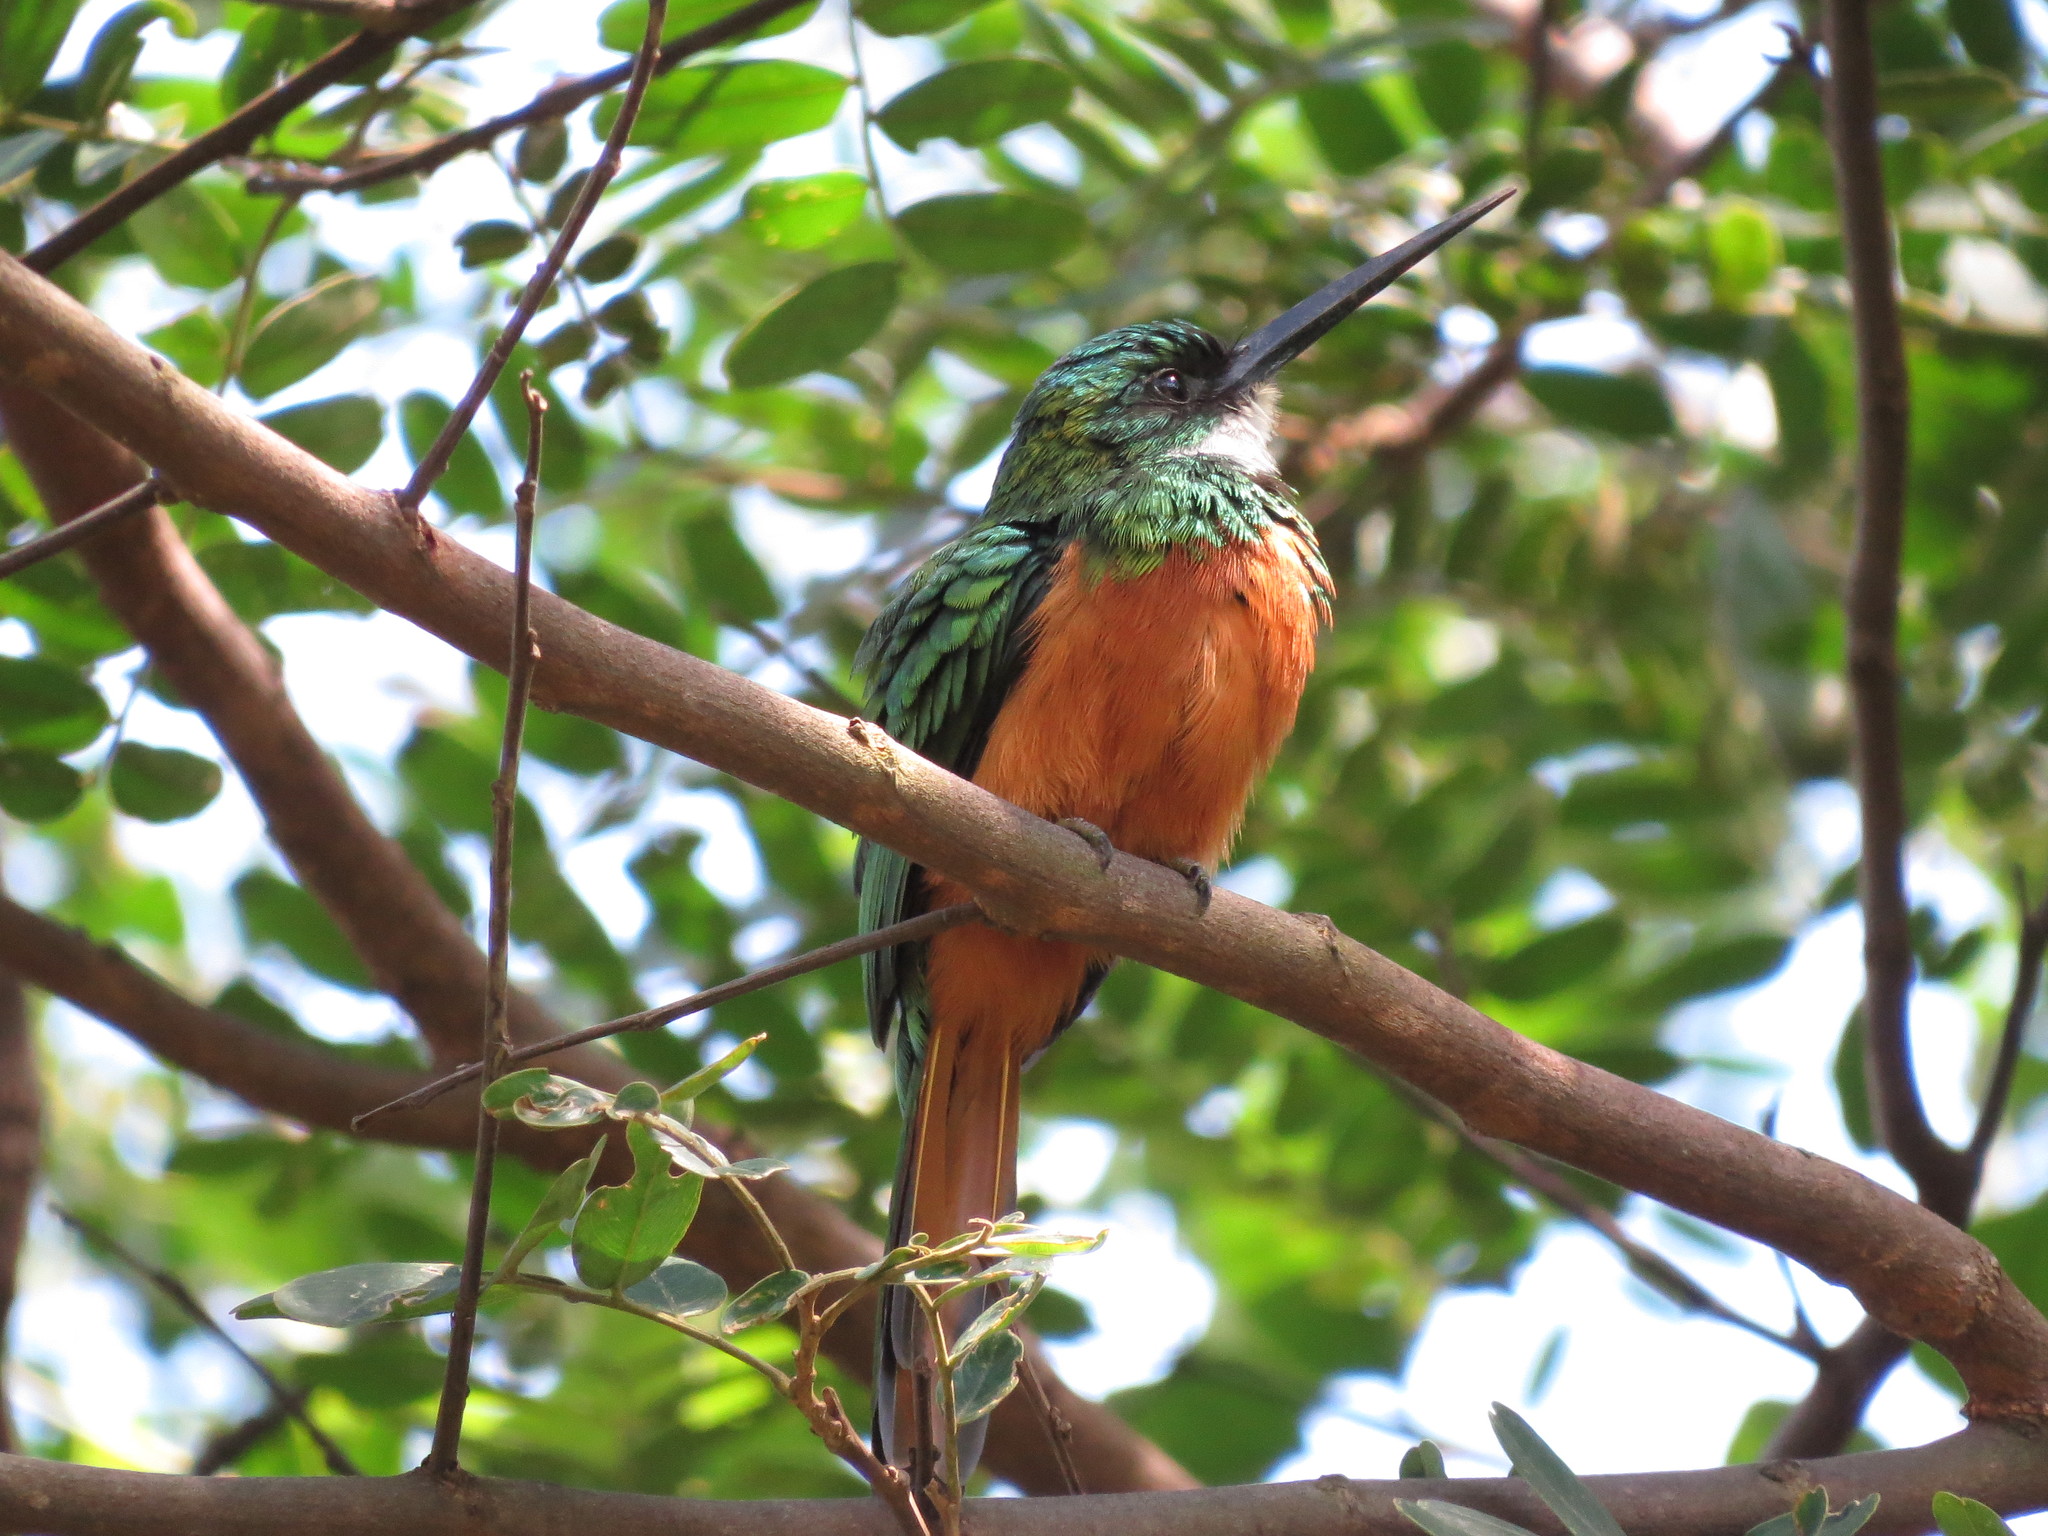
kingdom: Animalia
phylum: Chordata
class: Aves
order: Piciformes
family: Galbulidae
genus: Galbula
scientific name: Galbula ruficauda
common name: Rufous-tailed jacamar
